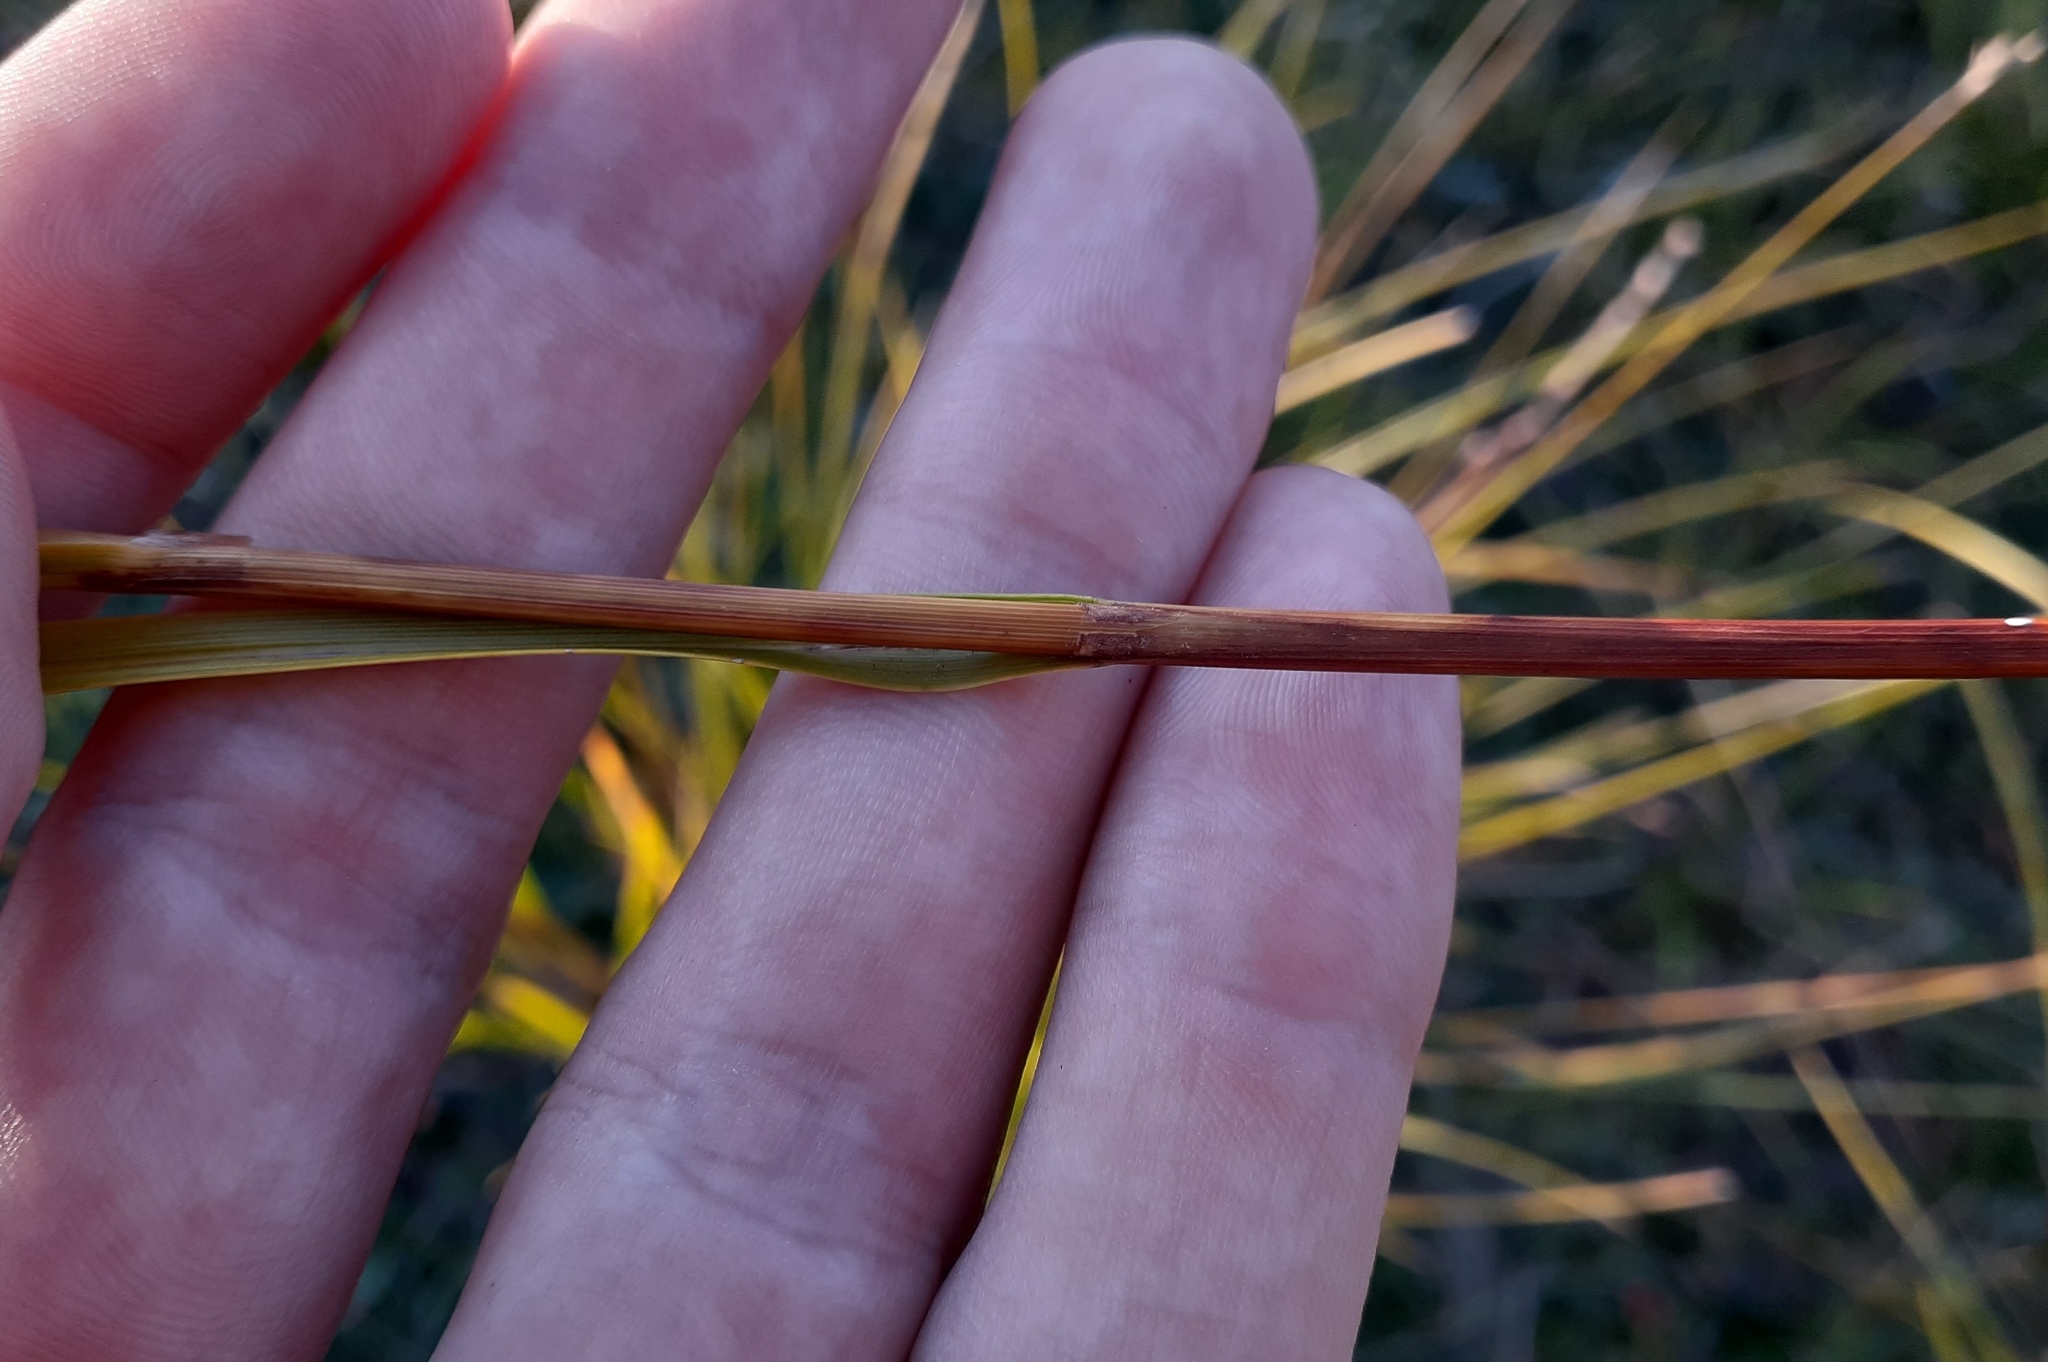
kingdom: Plantae
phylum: Tracheophyta
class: Liliopsida
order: Poales
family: Cyperaceae
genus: Carex
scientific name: Carex adusta
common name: Browned sedge
